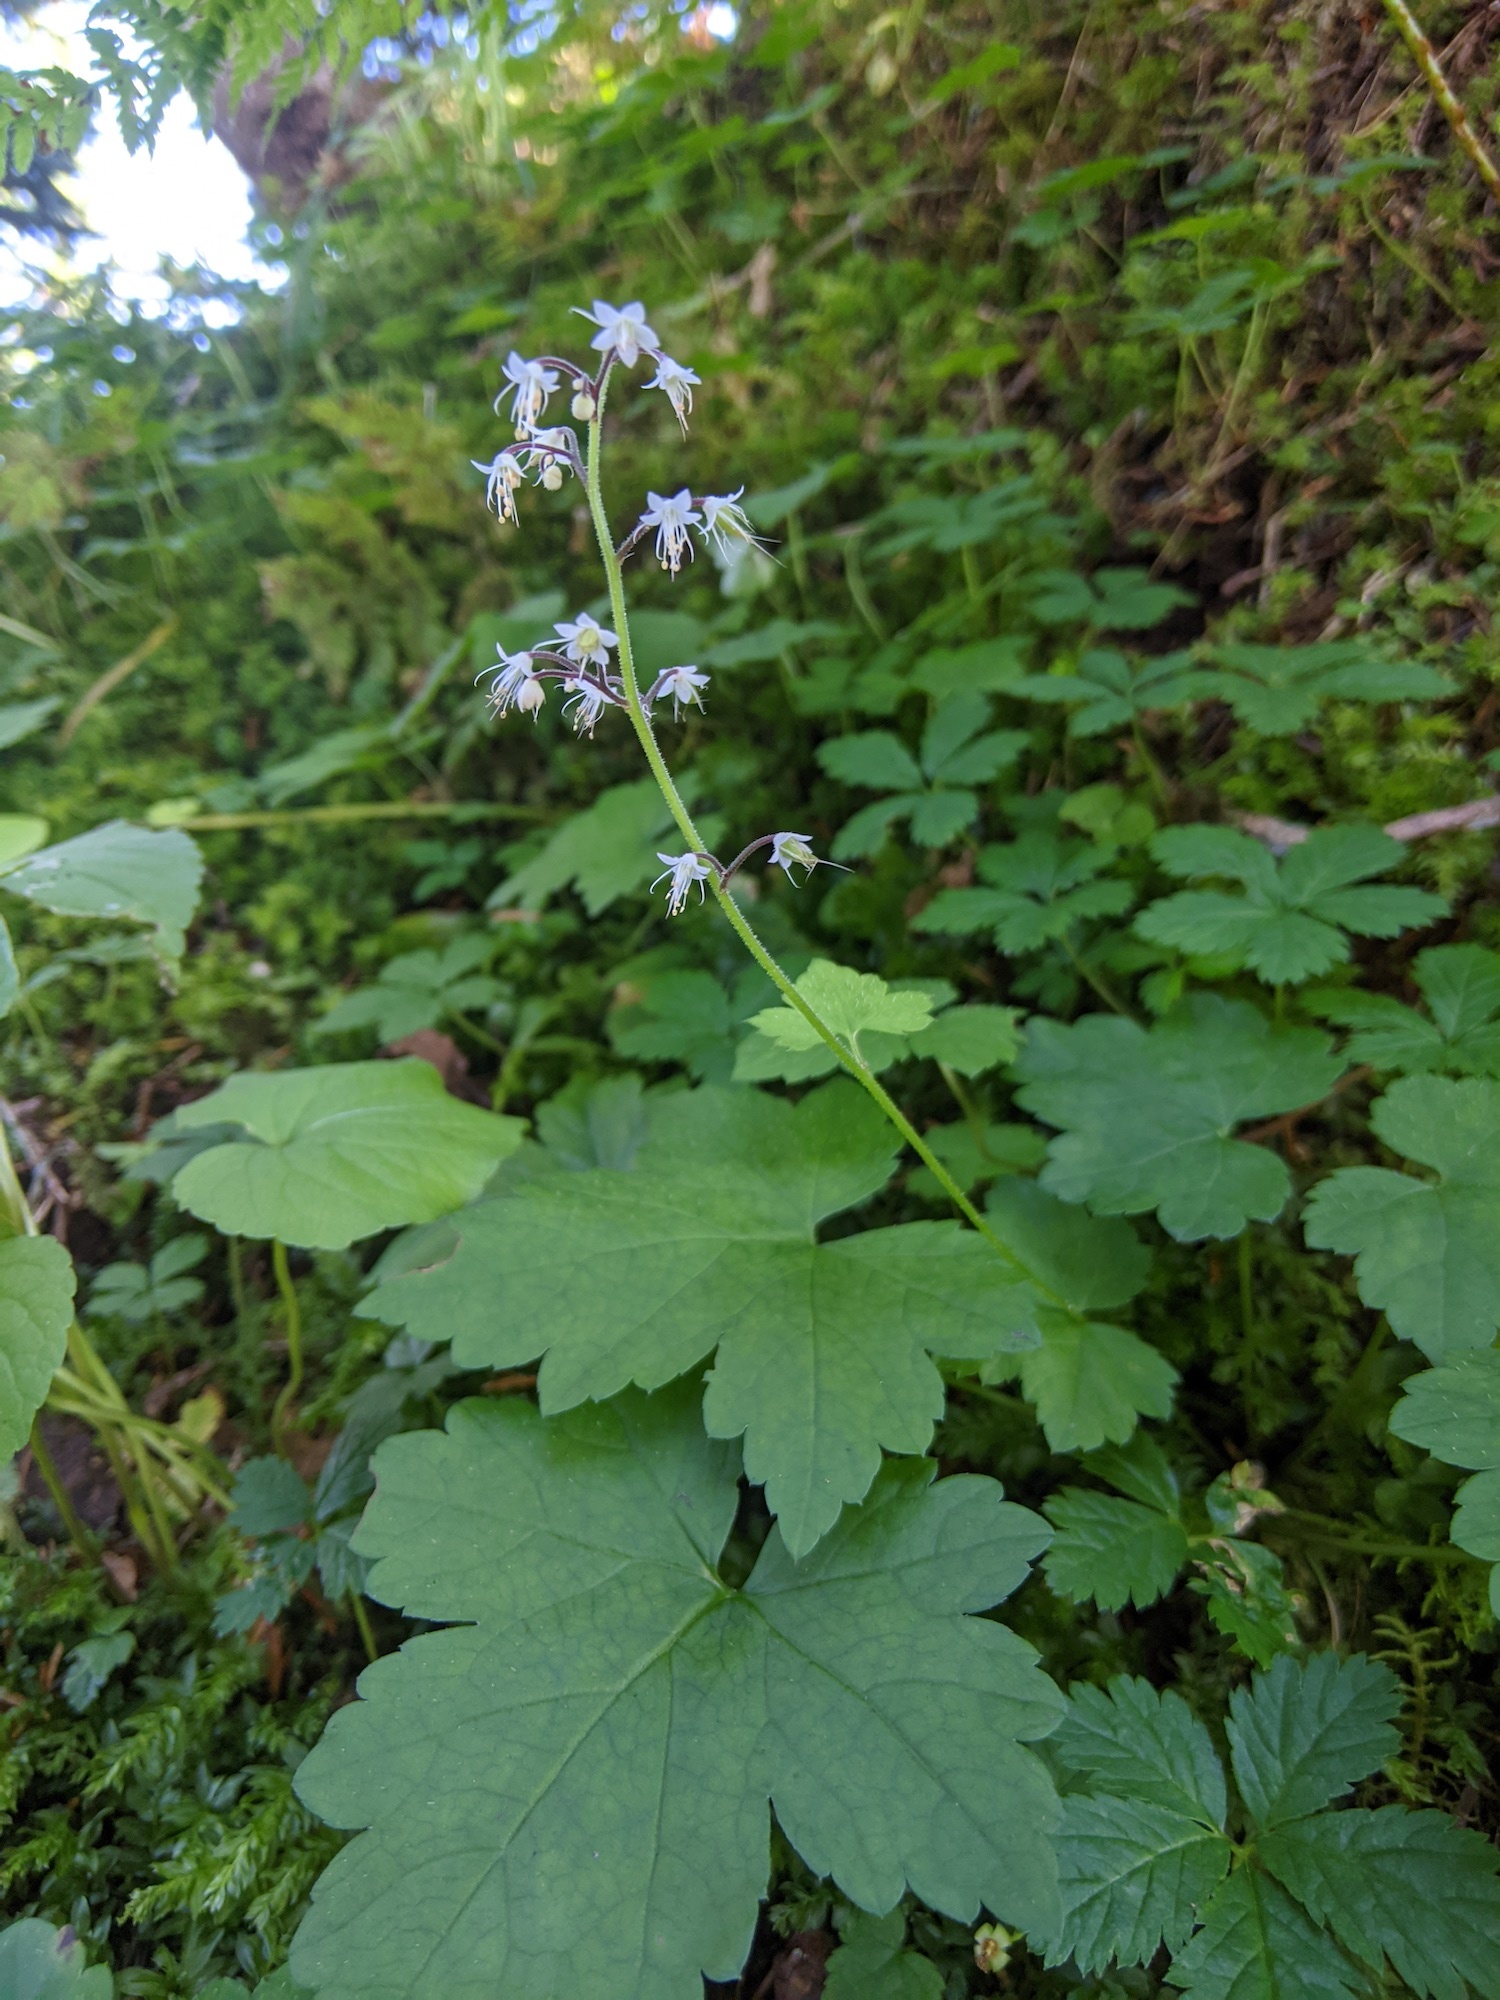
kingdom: Plantae
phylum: Tracheophyta
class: Magnoliopsida
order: Saxifragales
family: Saxifragaceae
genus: Tiarella
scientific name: Tiarella trifoliata
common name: Sugar-scoop
